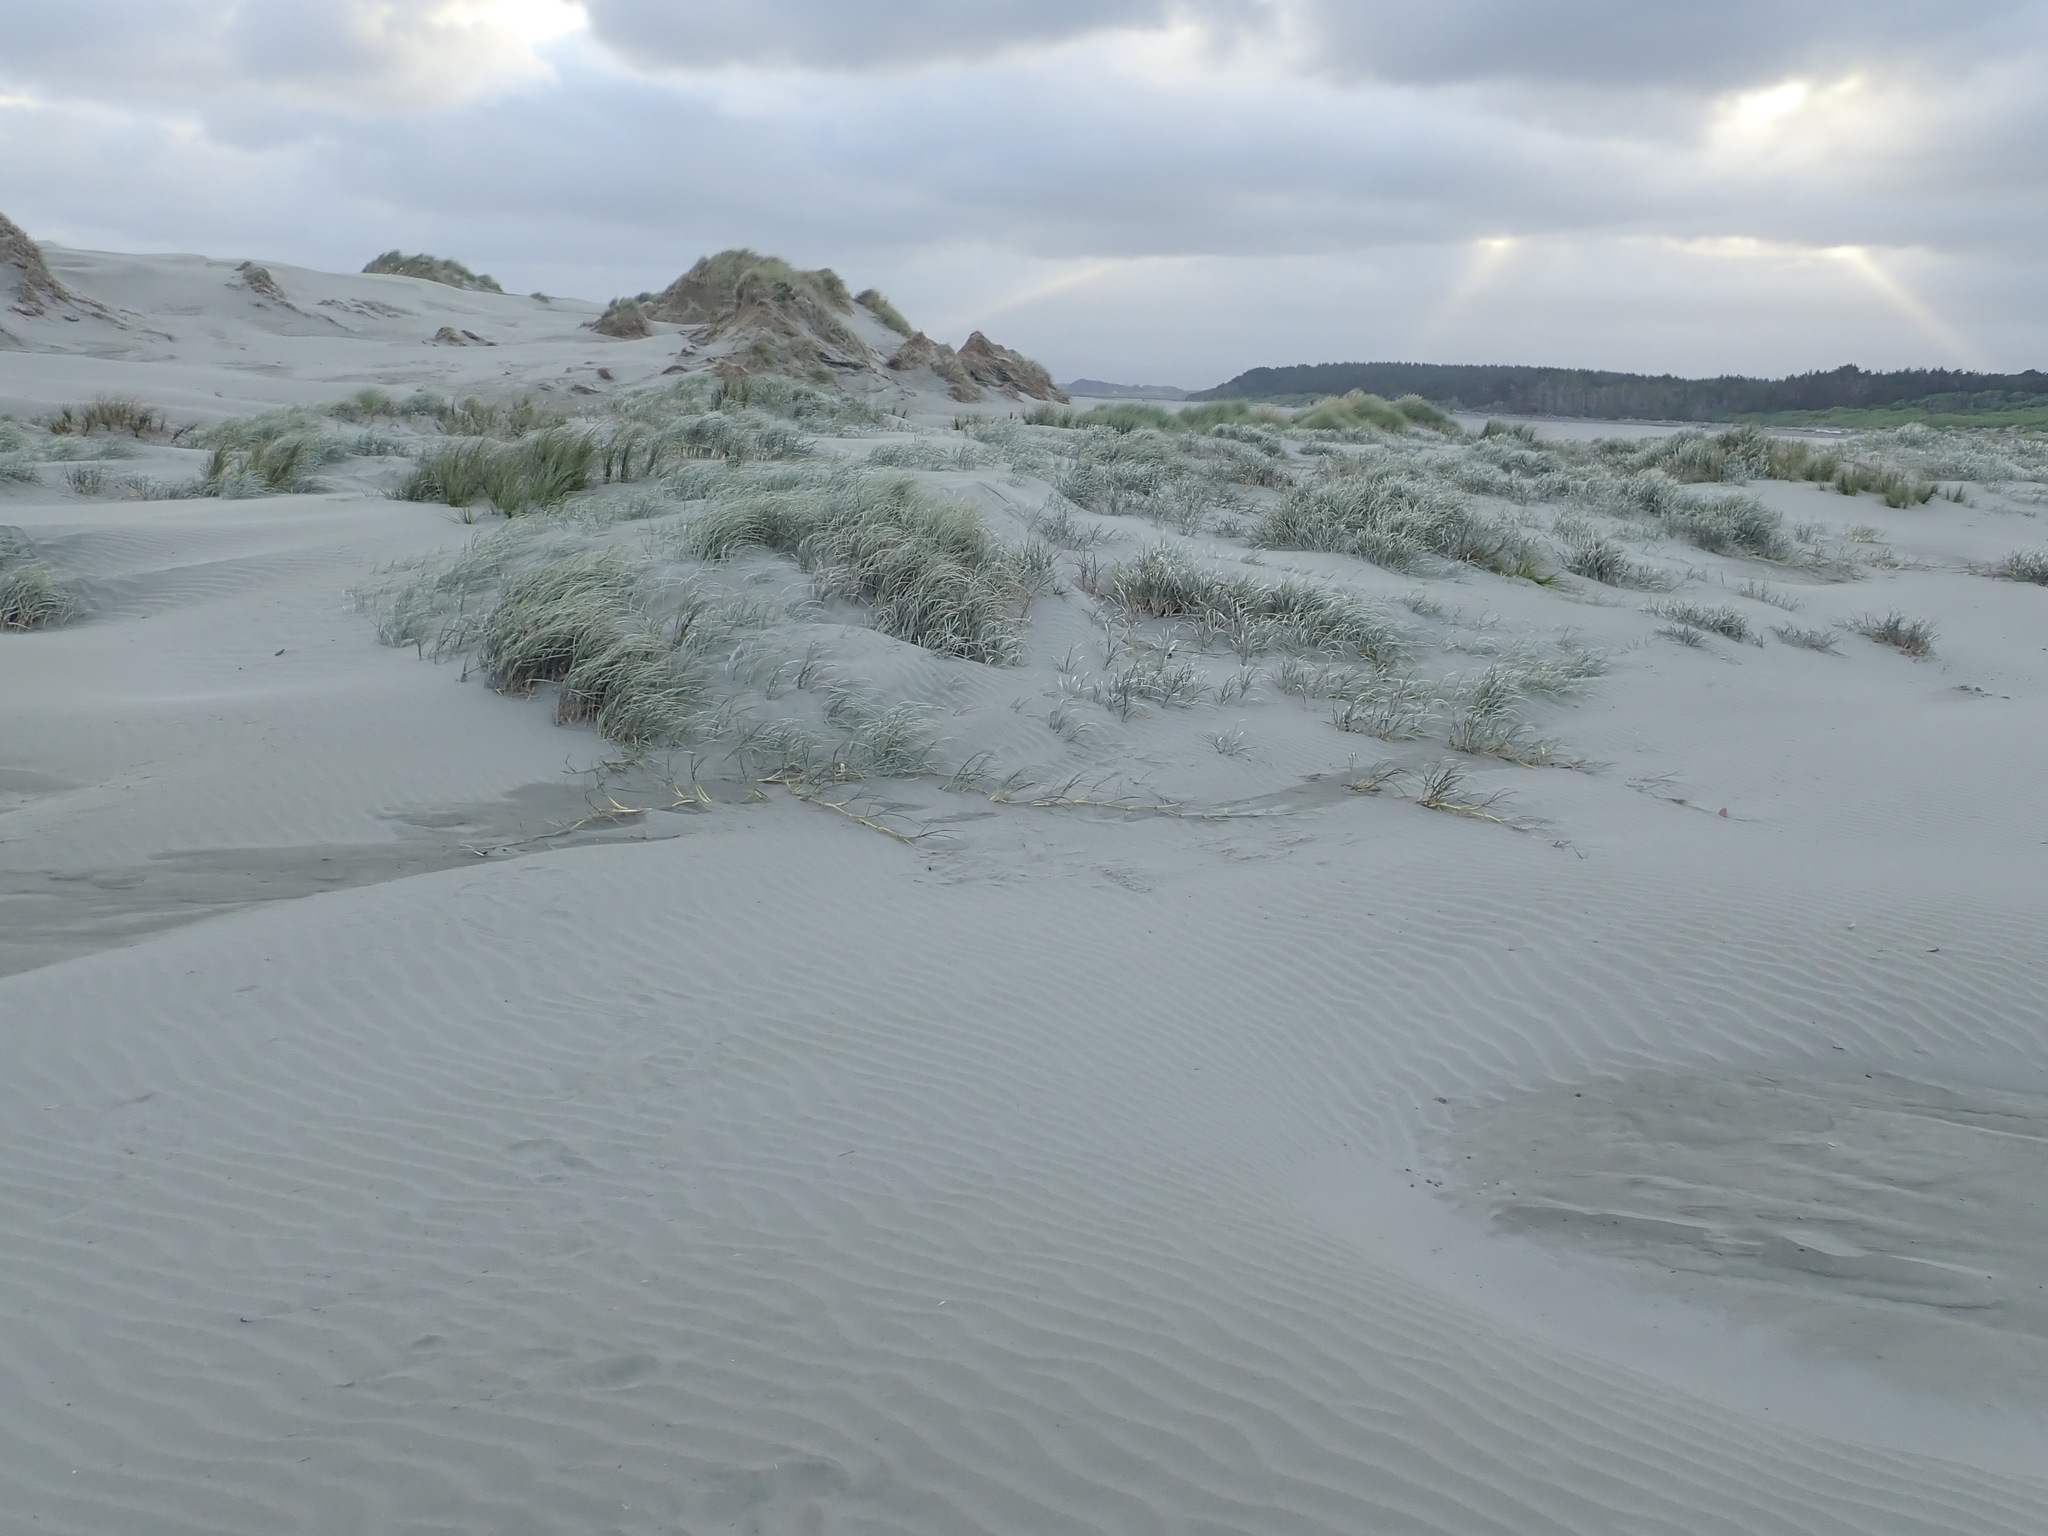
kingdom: Plantae
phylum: Tracheophyta
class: Liliopsida
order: Poales
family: Poaceae
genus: Spinifex
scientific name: Spinifex sericeus
